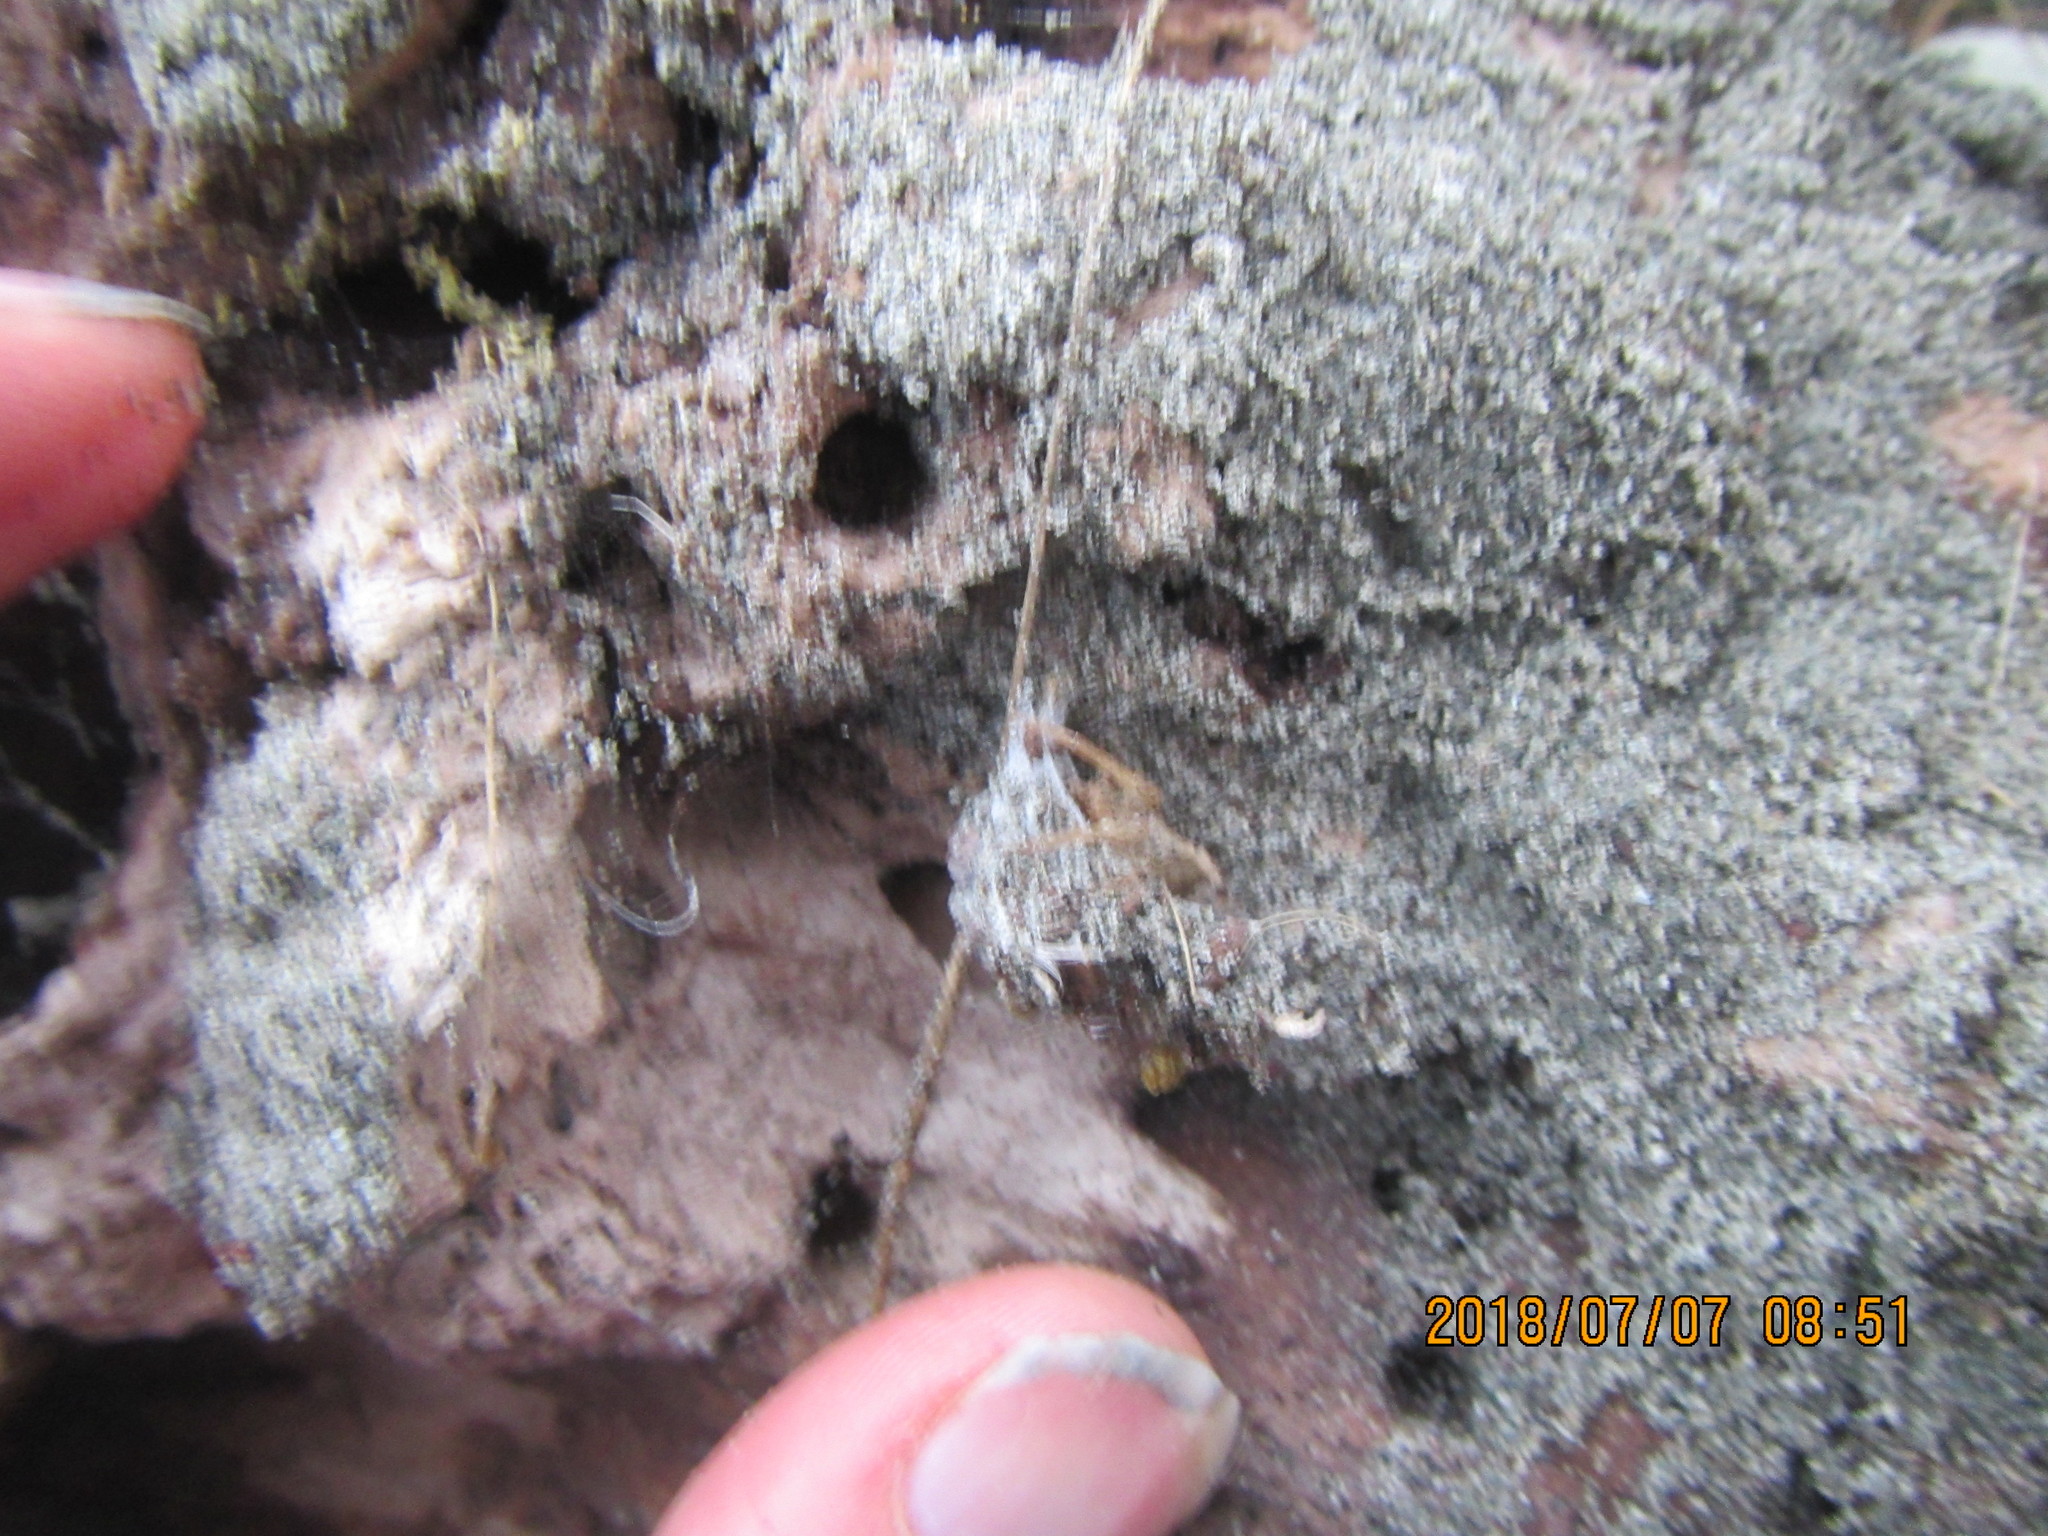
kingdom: Animalia
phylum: Arthropoda
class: Arachnida
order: Araneae
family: Thomisidae
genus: Sidymella
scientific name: Sidymella trapezia
